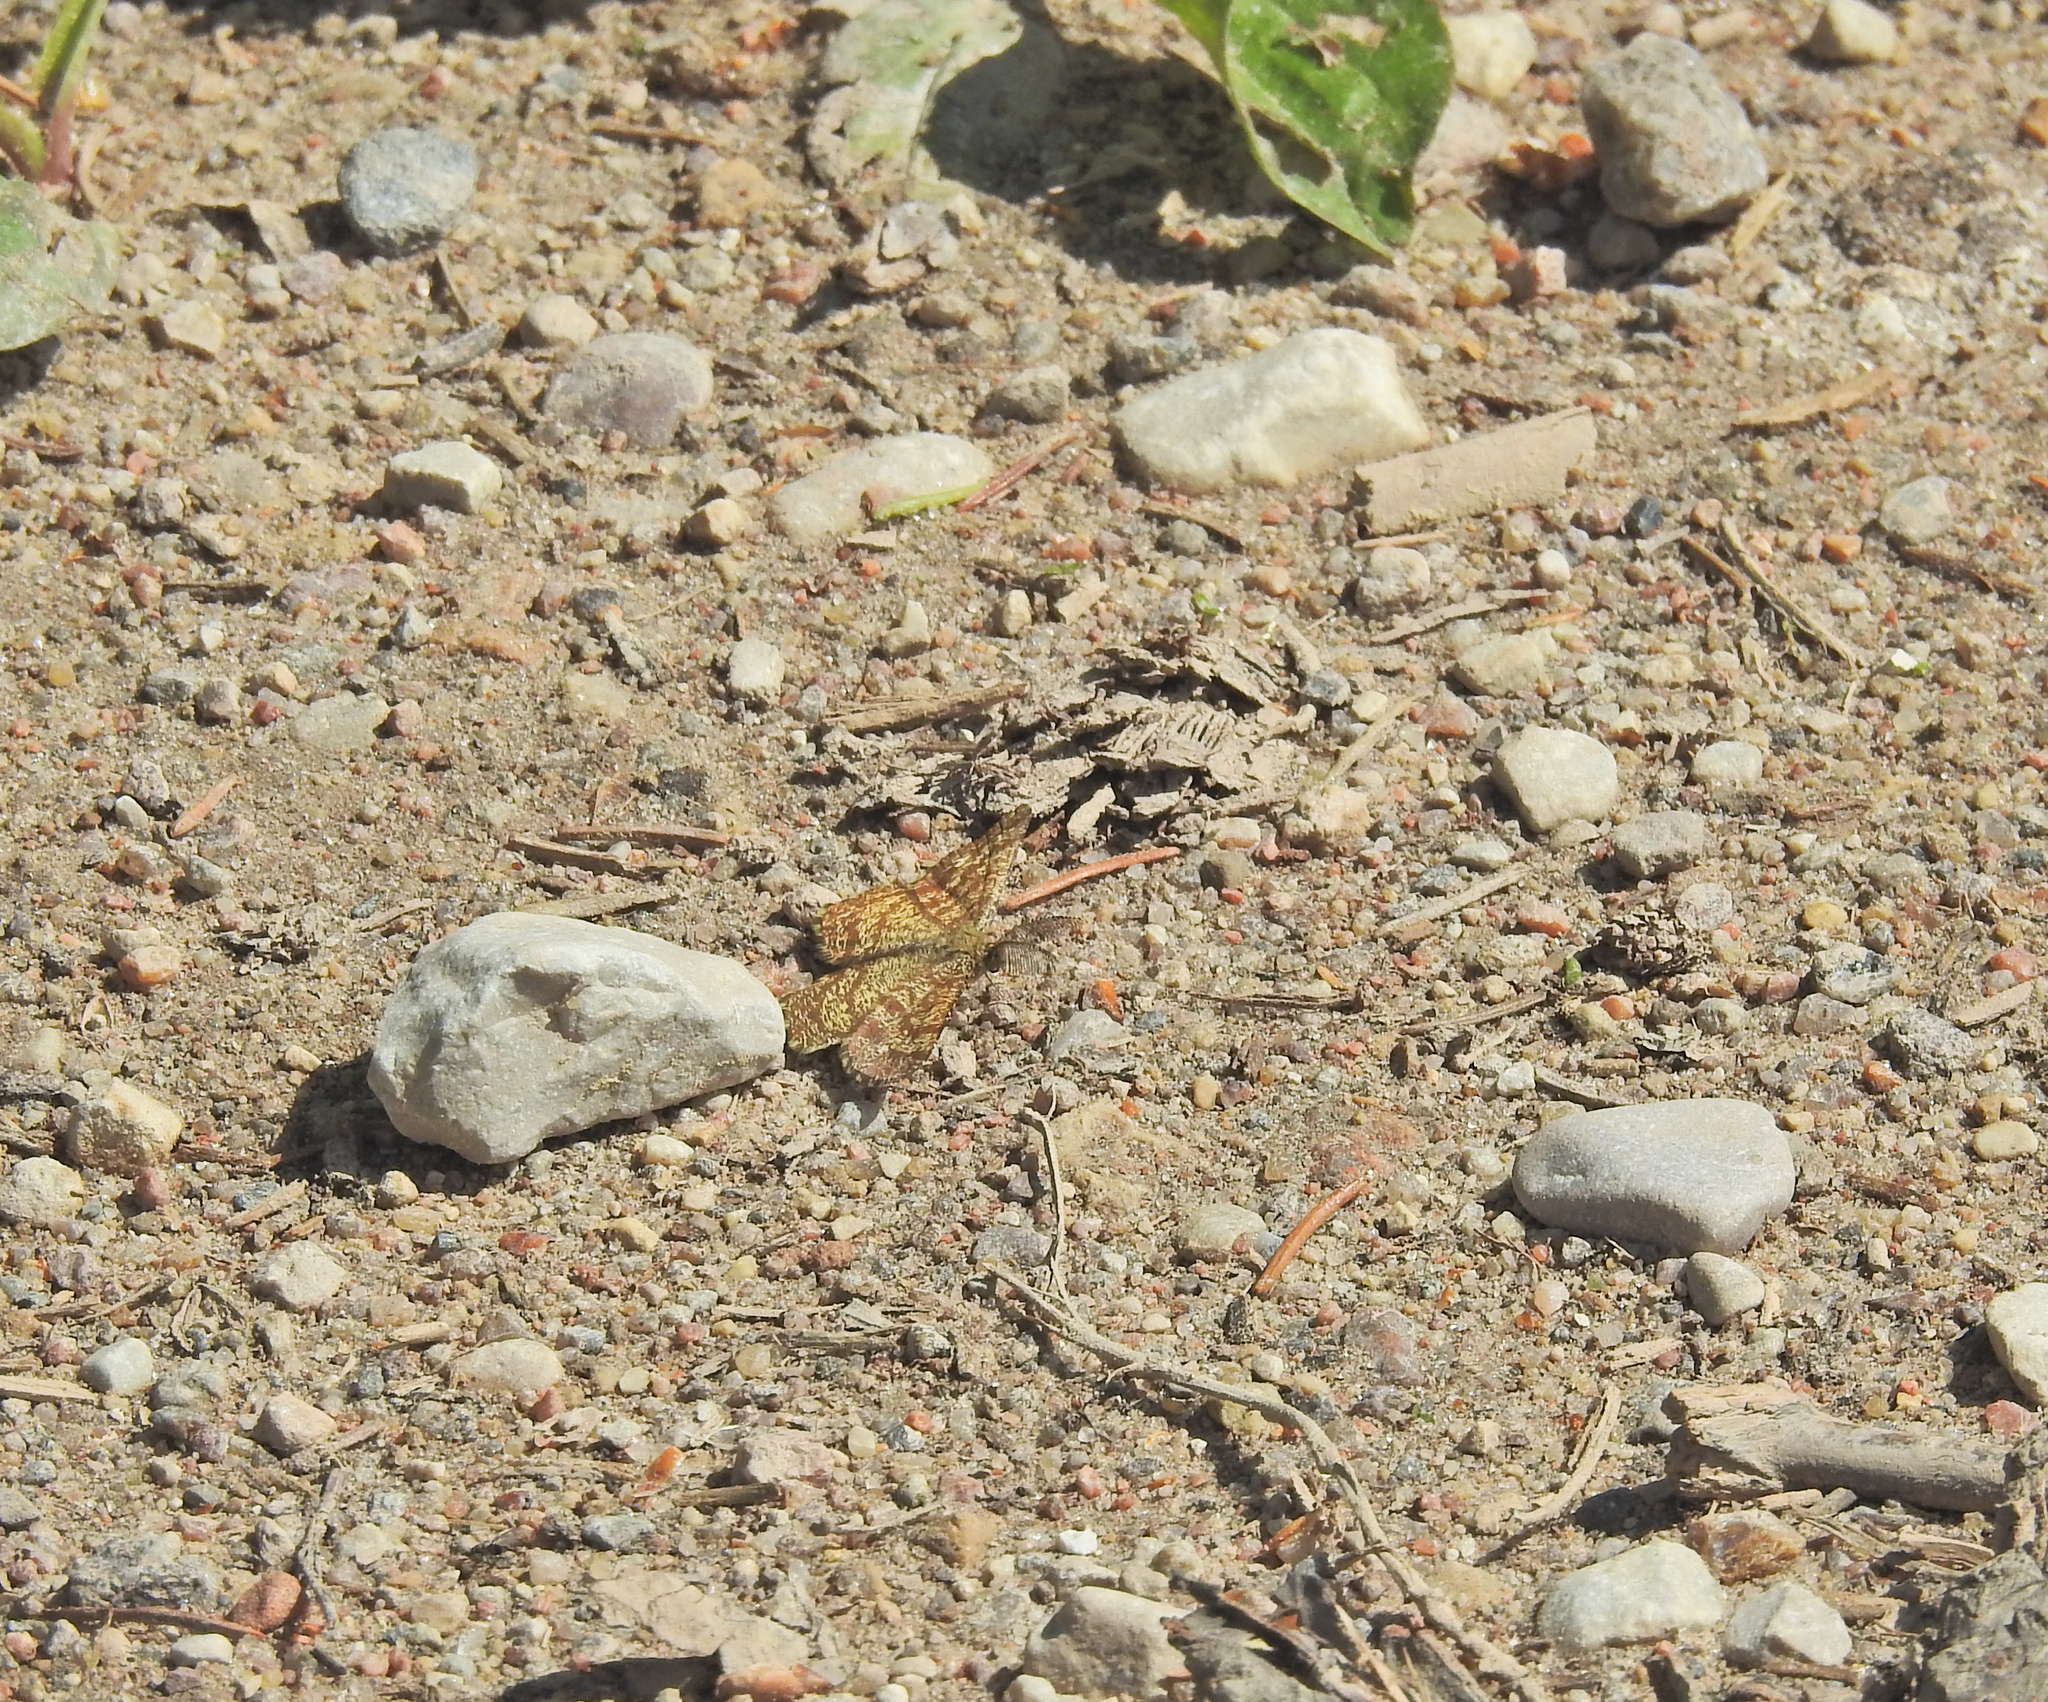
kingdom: Animalia
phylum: Arthropoda
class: Insecta
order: Lepidoptera
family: Geometridae
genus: Ematurga
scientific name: Ematurga atomaria
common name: Common heath
